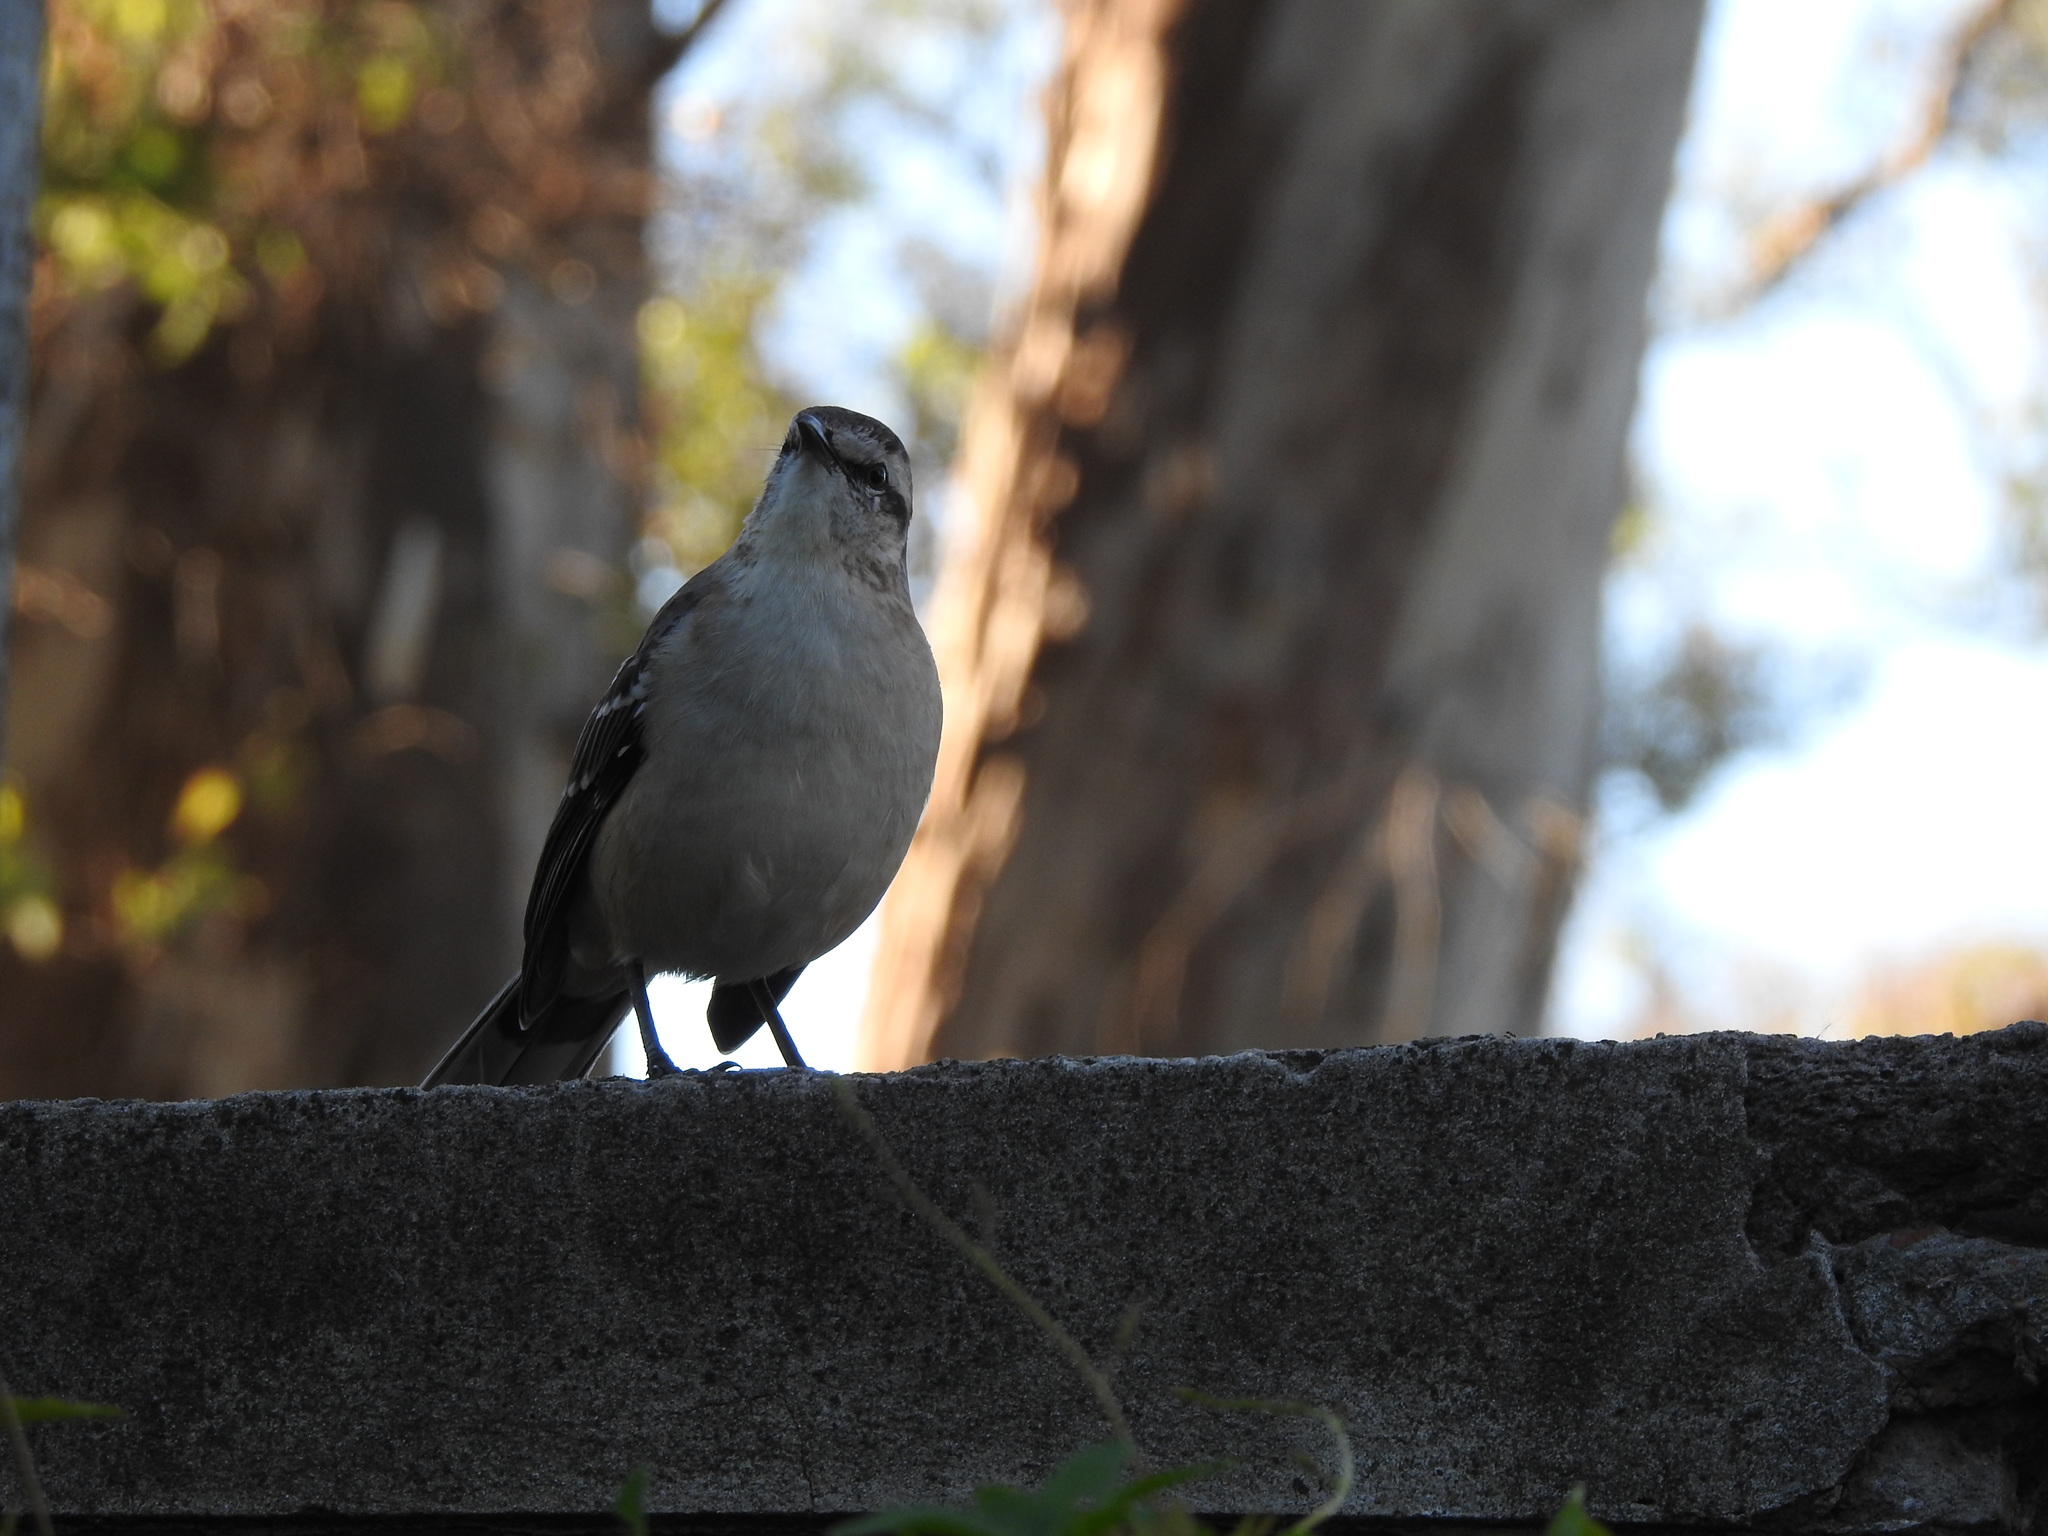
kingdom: Animalia
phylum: Chordata
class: Aves
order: Passeriformes
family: Mimidae
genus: Mimus
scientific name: Mimus saturninus
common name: Chalk-browed mockingbird
